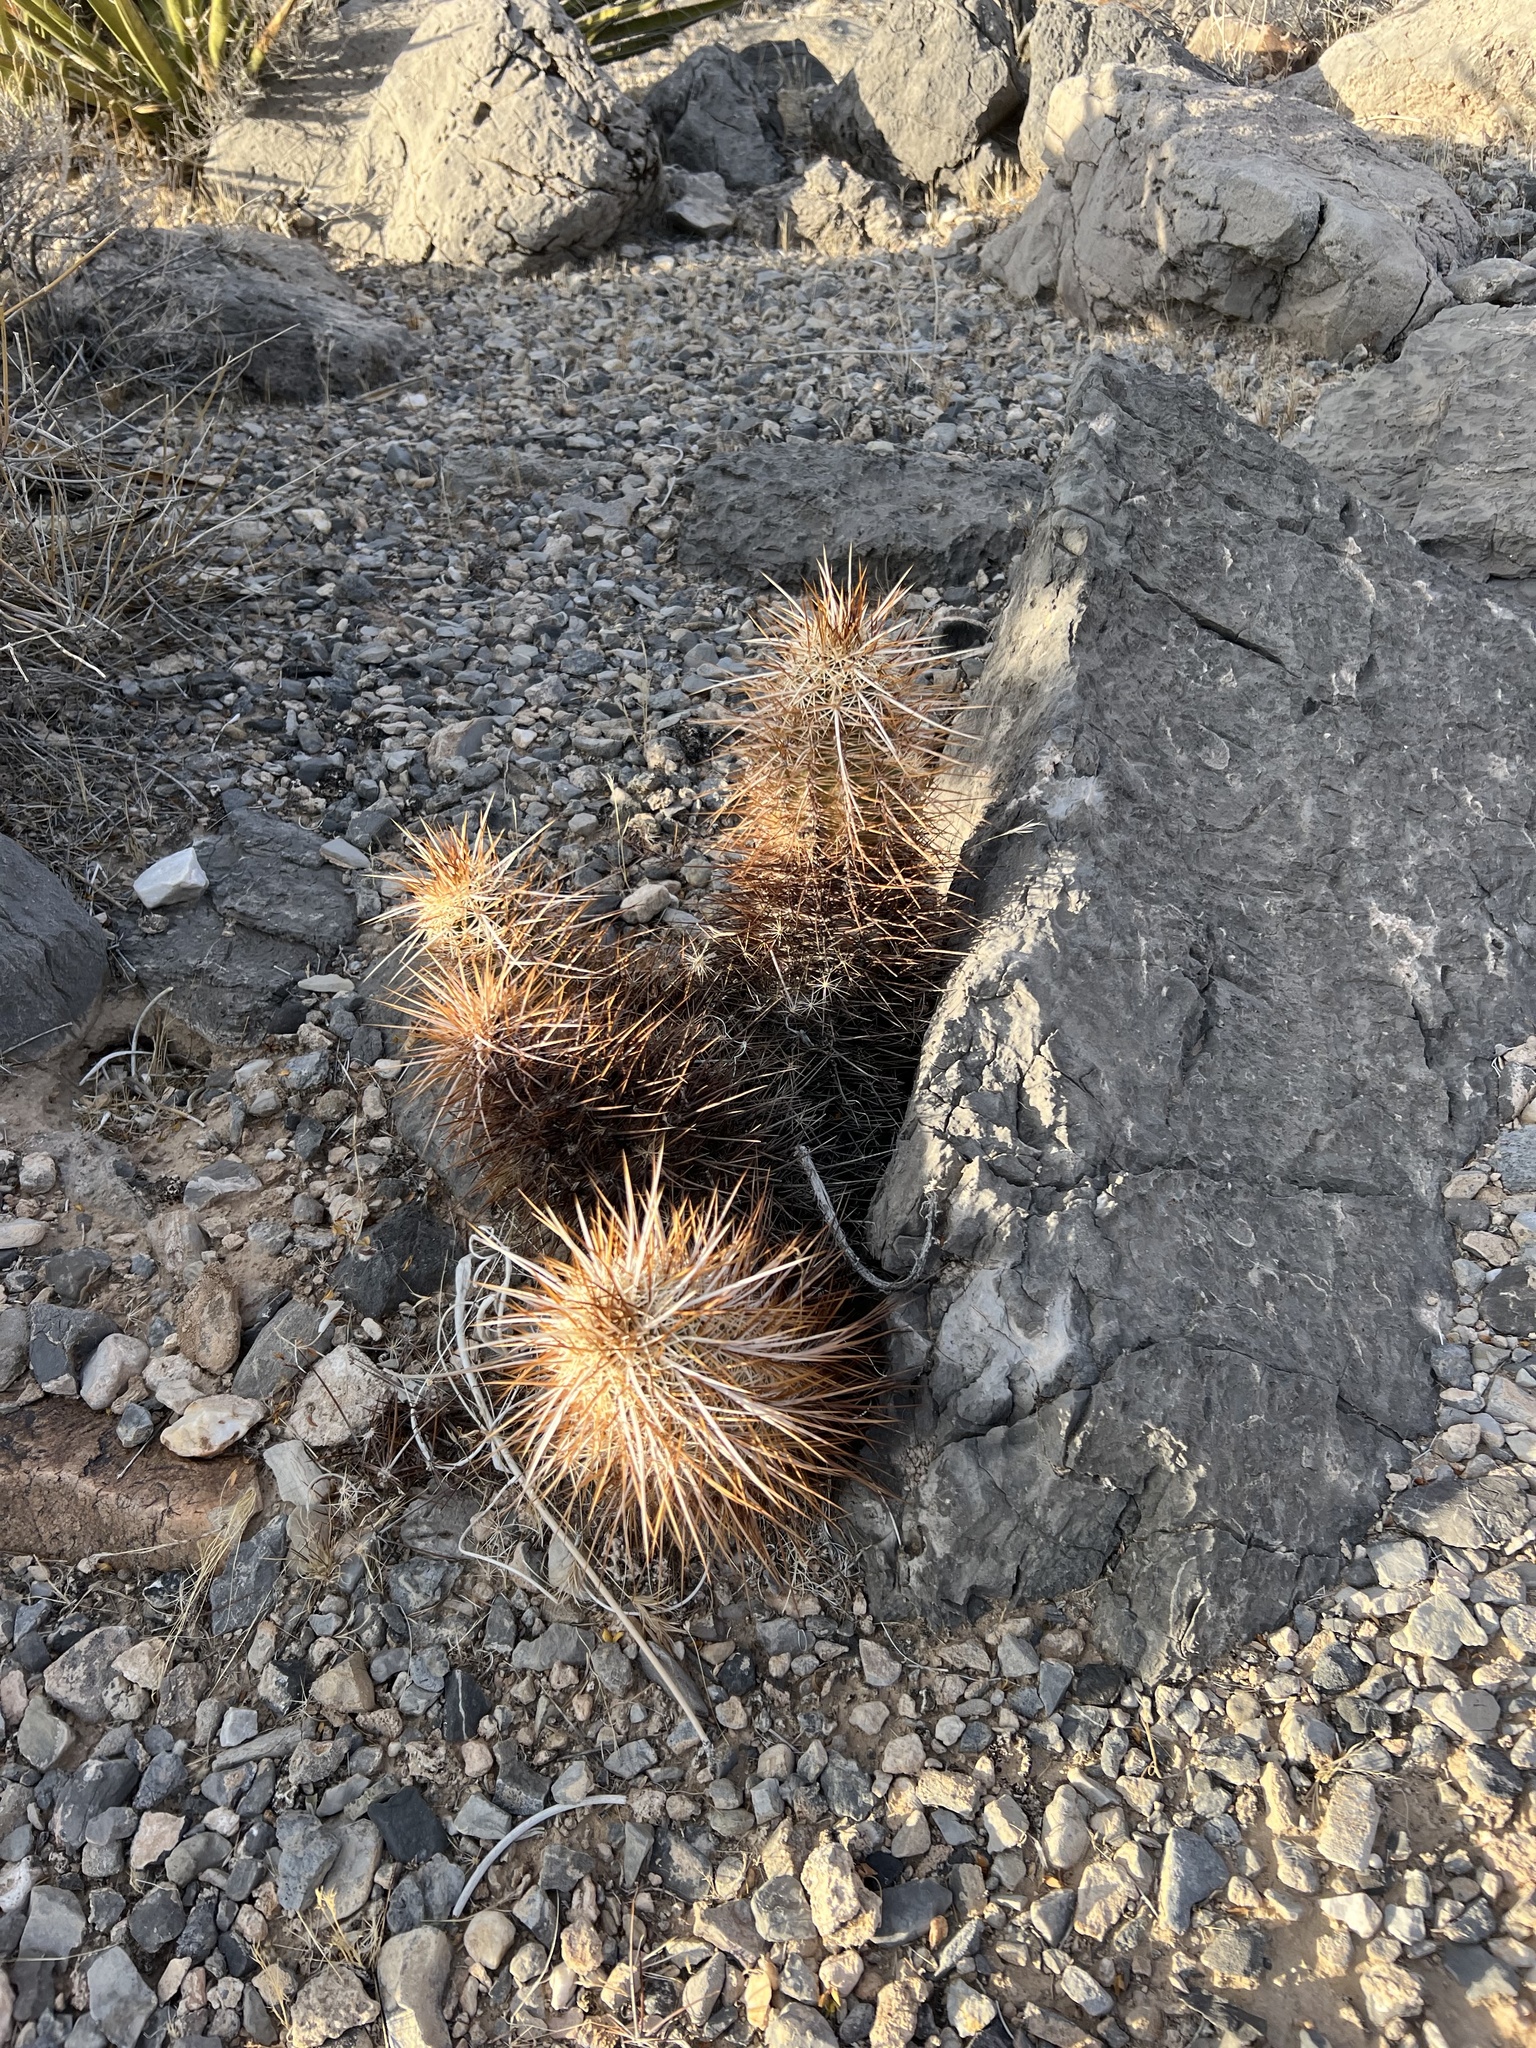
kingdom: Plantae
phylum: Tracheophyta
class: Magnoliopsida
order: Caryophyllales
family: Cactaceae
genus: Echinocereus
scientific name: Echinocereus engelmannii
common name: Engelmann's hedgehog cactus
